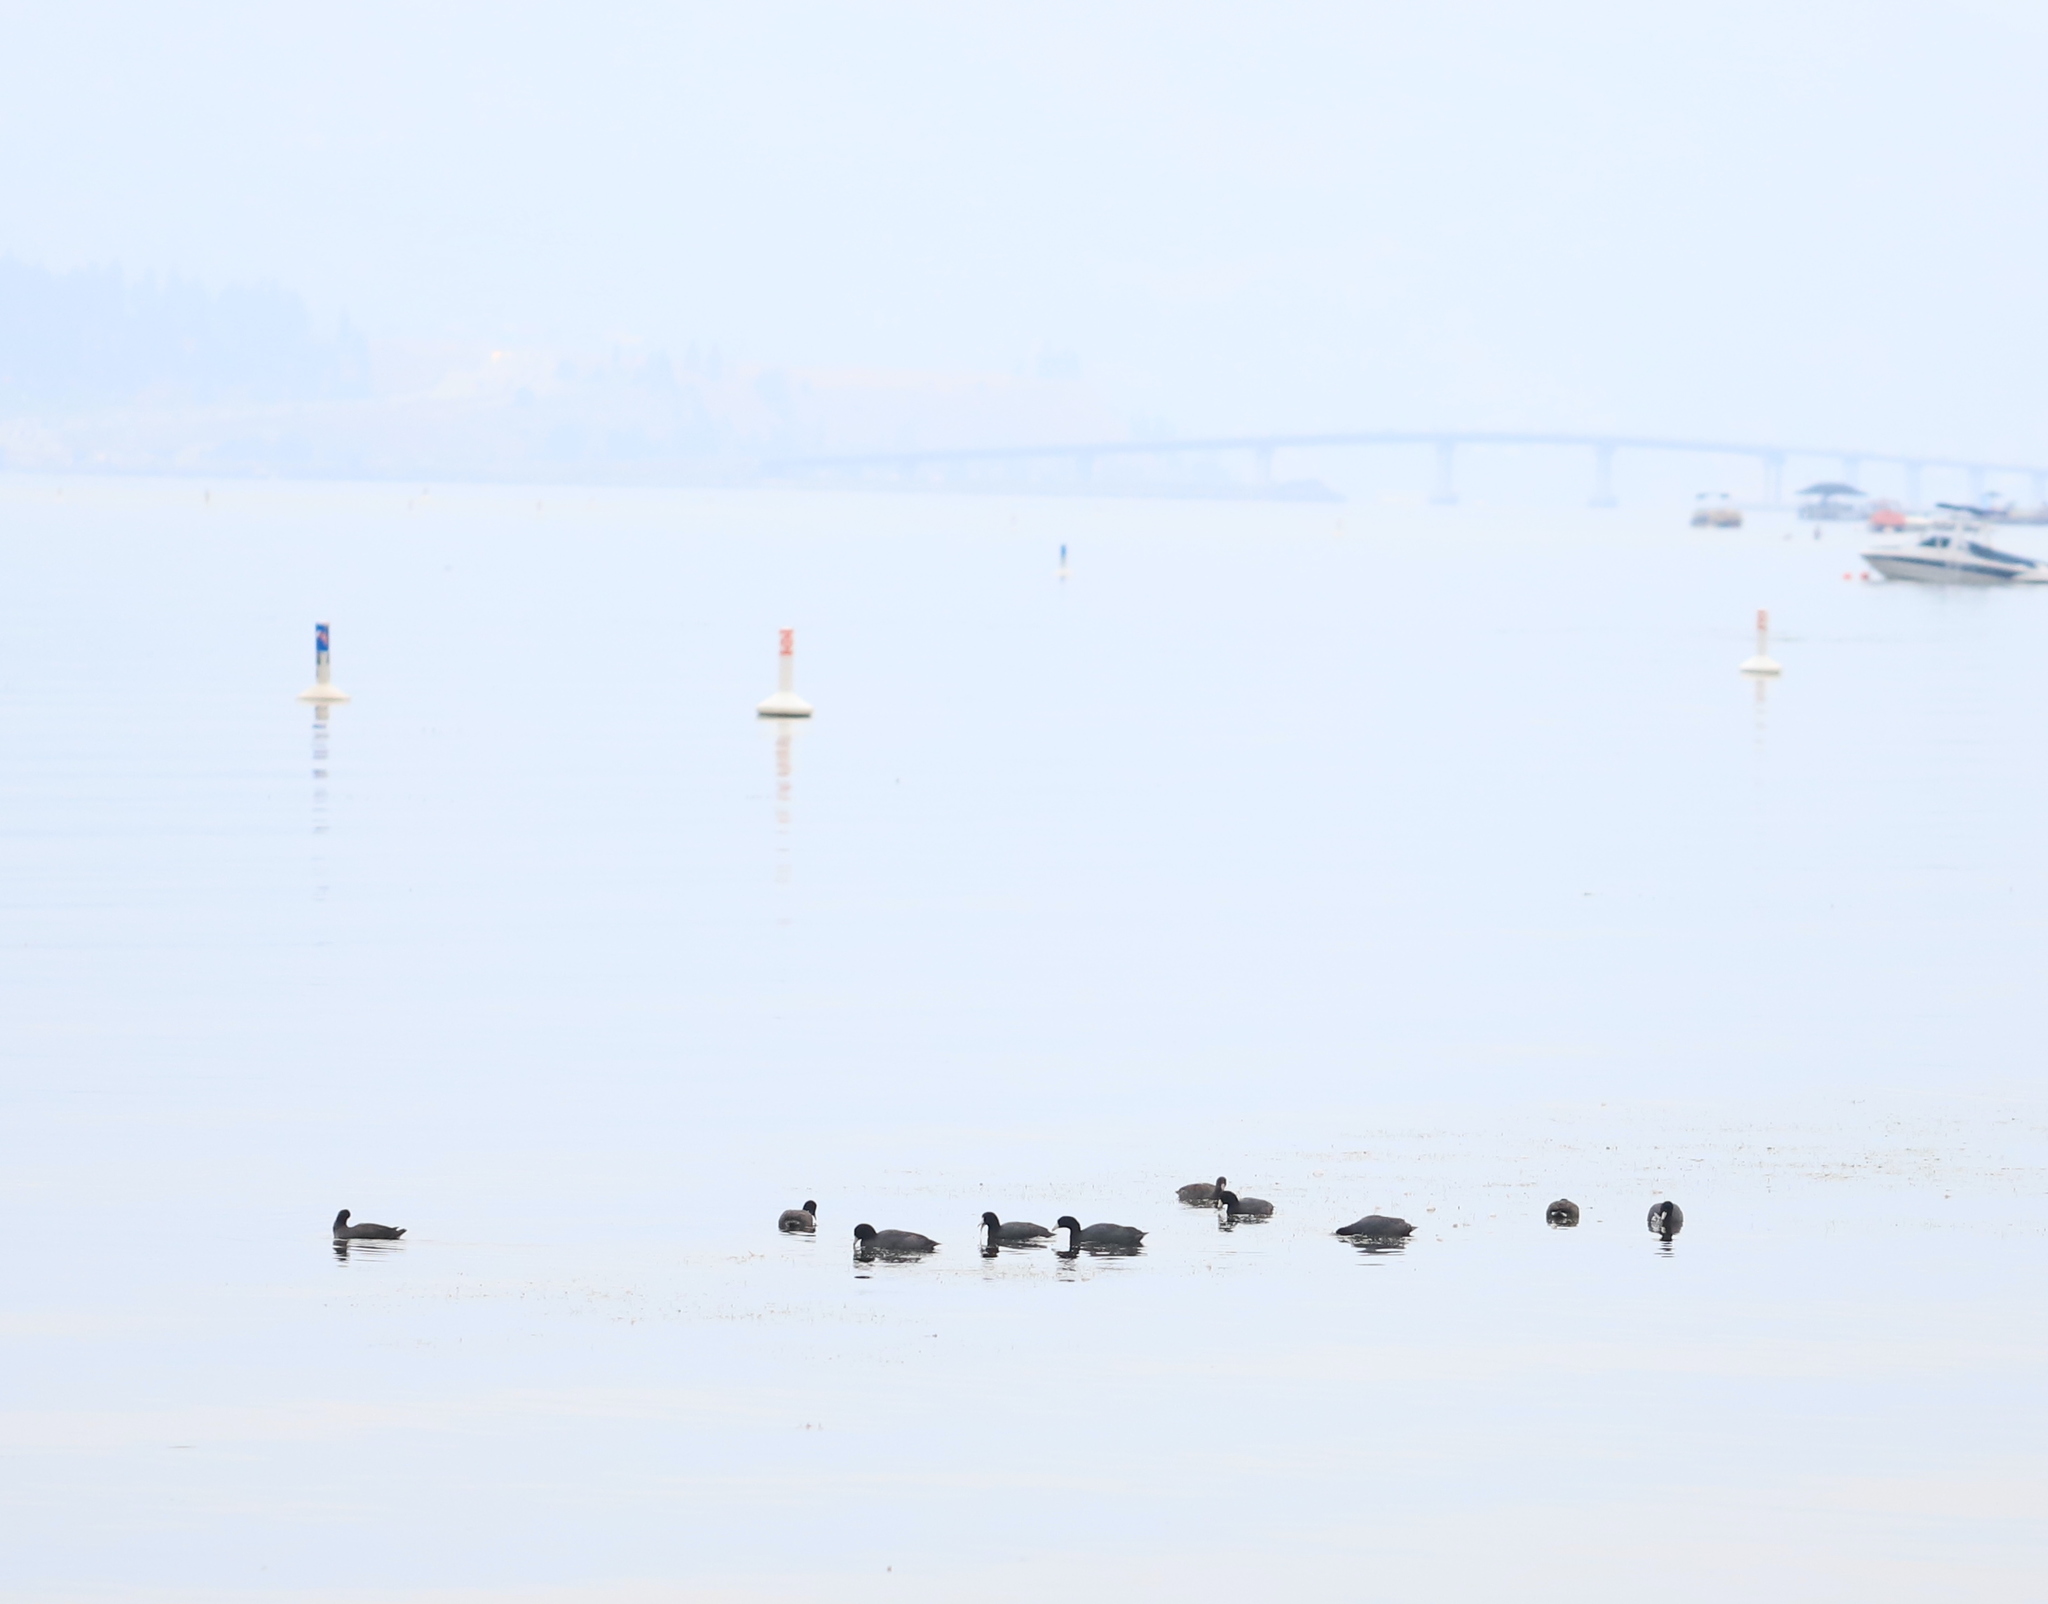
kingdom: Animalia
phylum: Chordata
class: Aves
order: Gruiformes
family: Rallidae
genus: Fulica
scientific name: Fulica americana
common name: American coot
